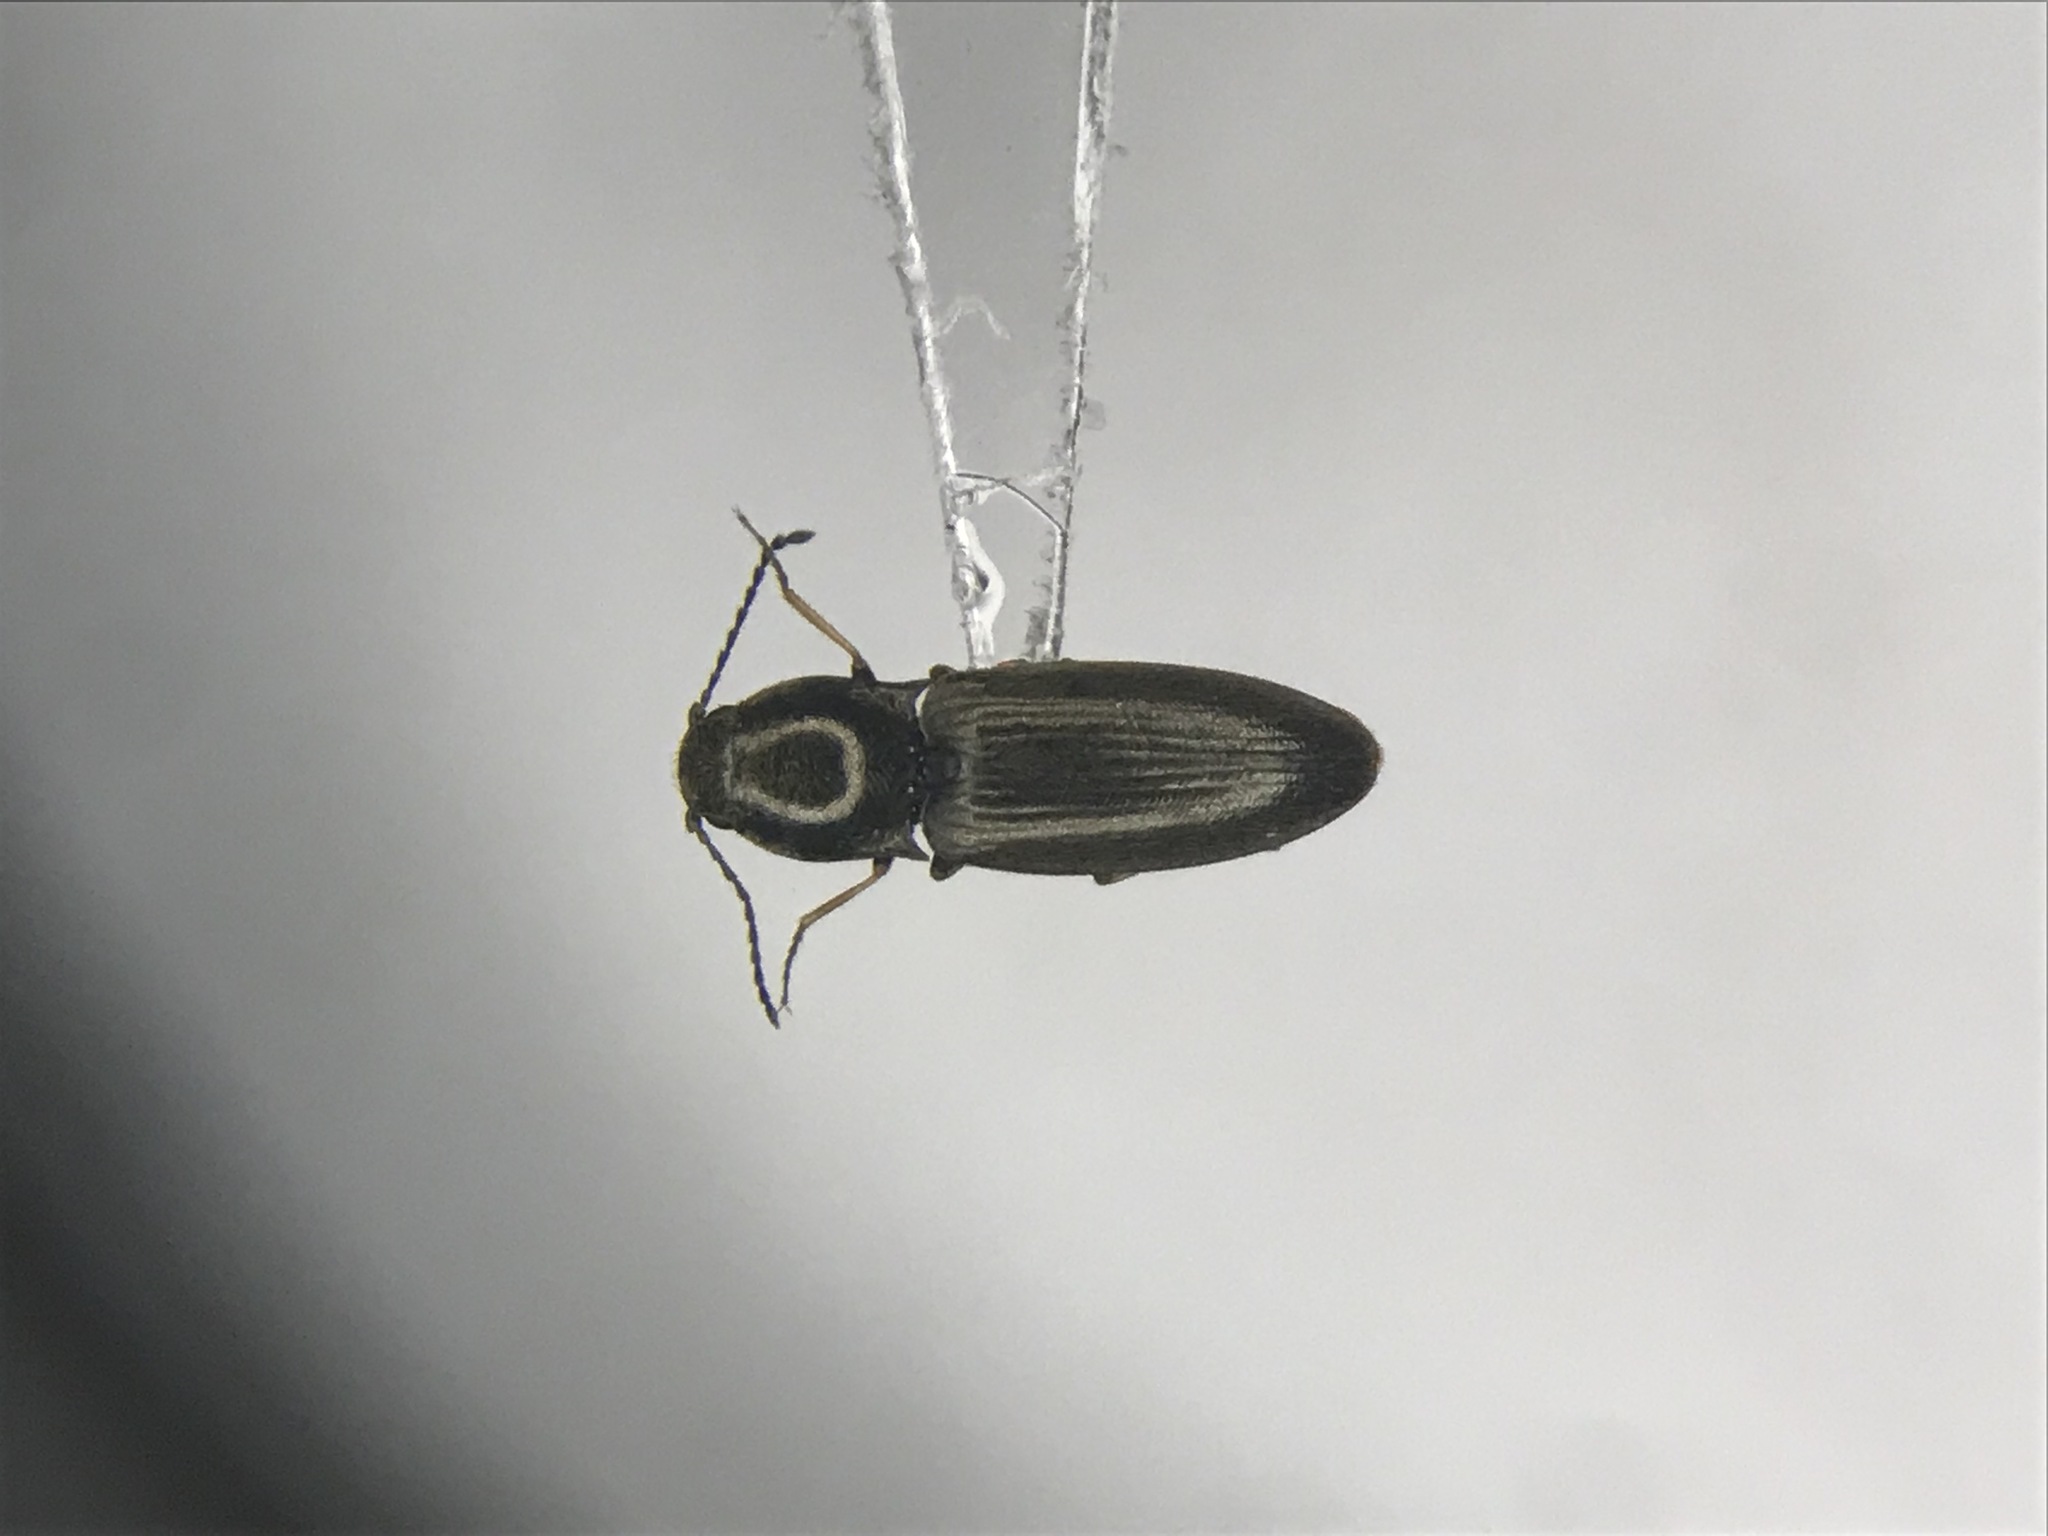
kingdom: Animalia
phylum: Arthropoda
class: Insecta
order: Coleoptera
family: Elateridae
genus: Oedostethus
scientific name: Oedostethus femoralis
